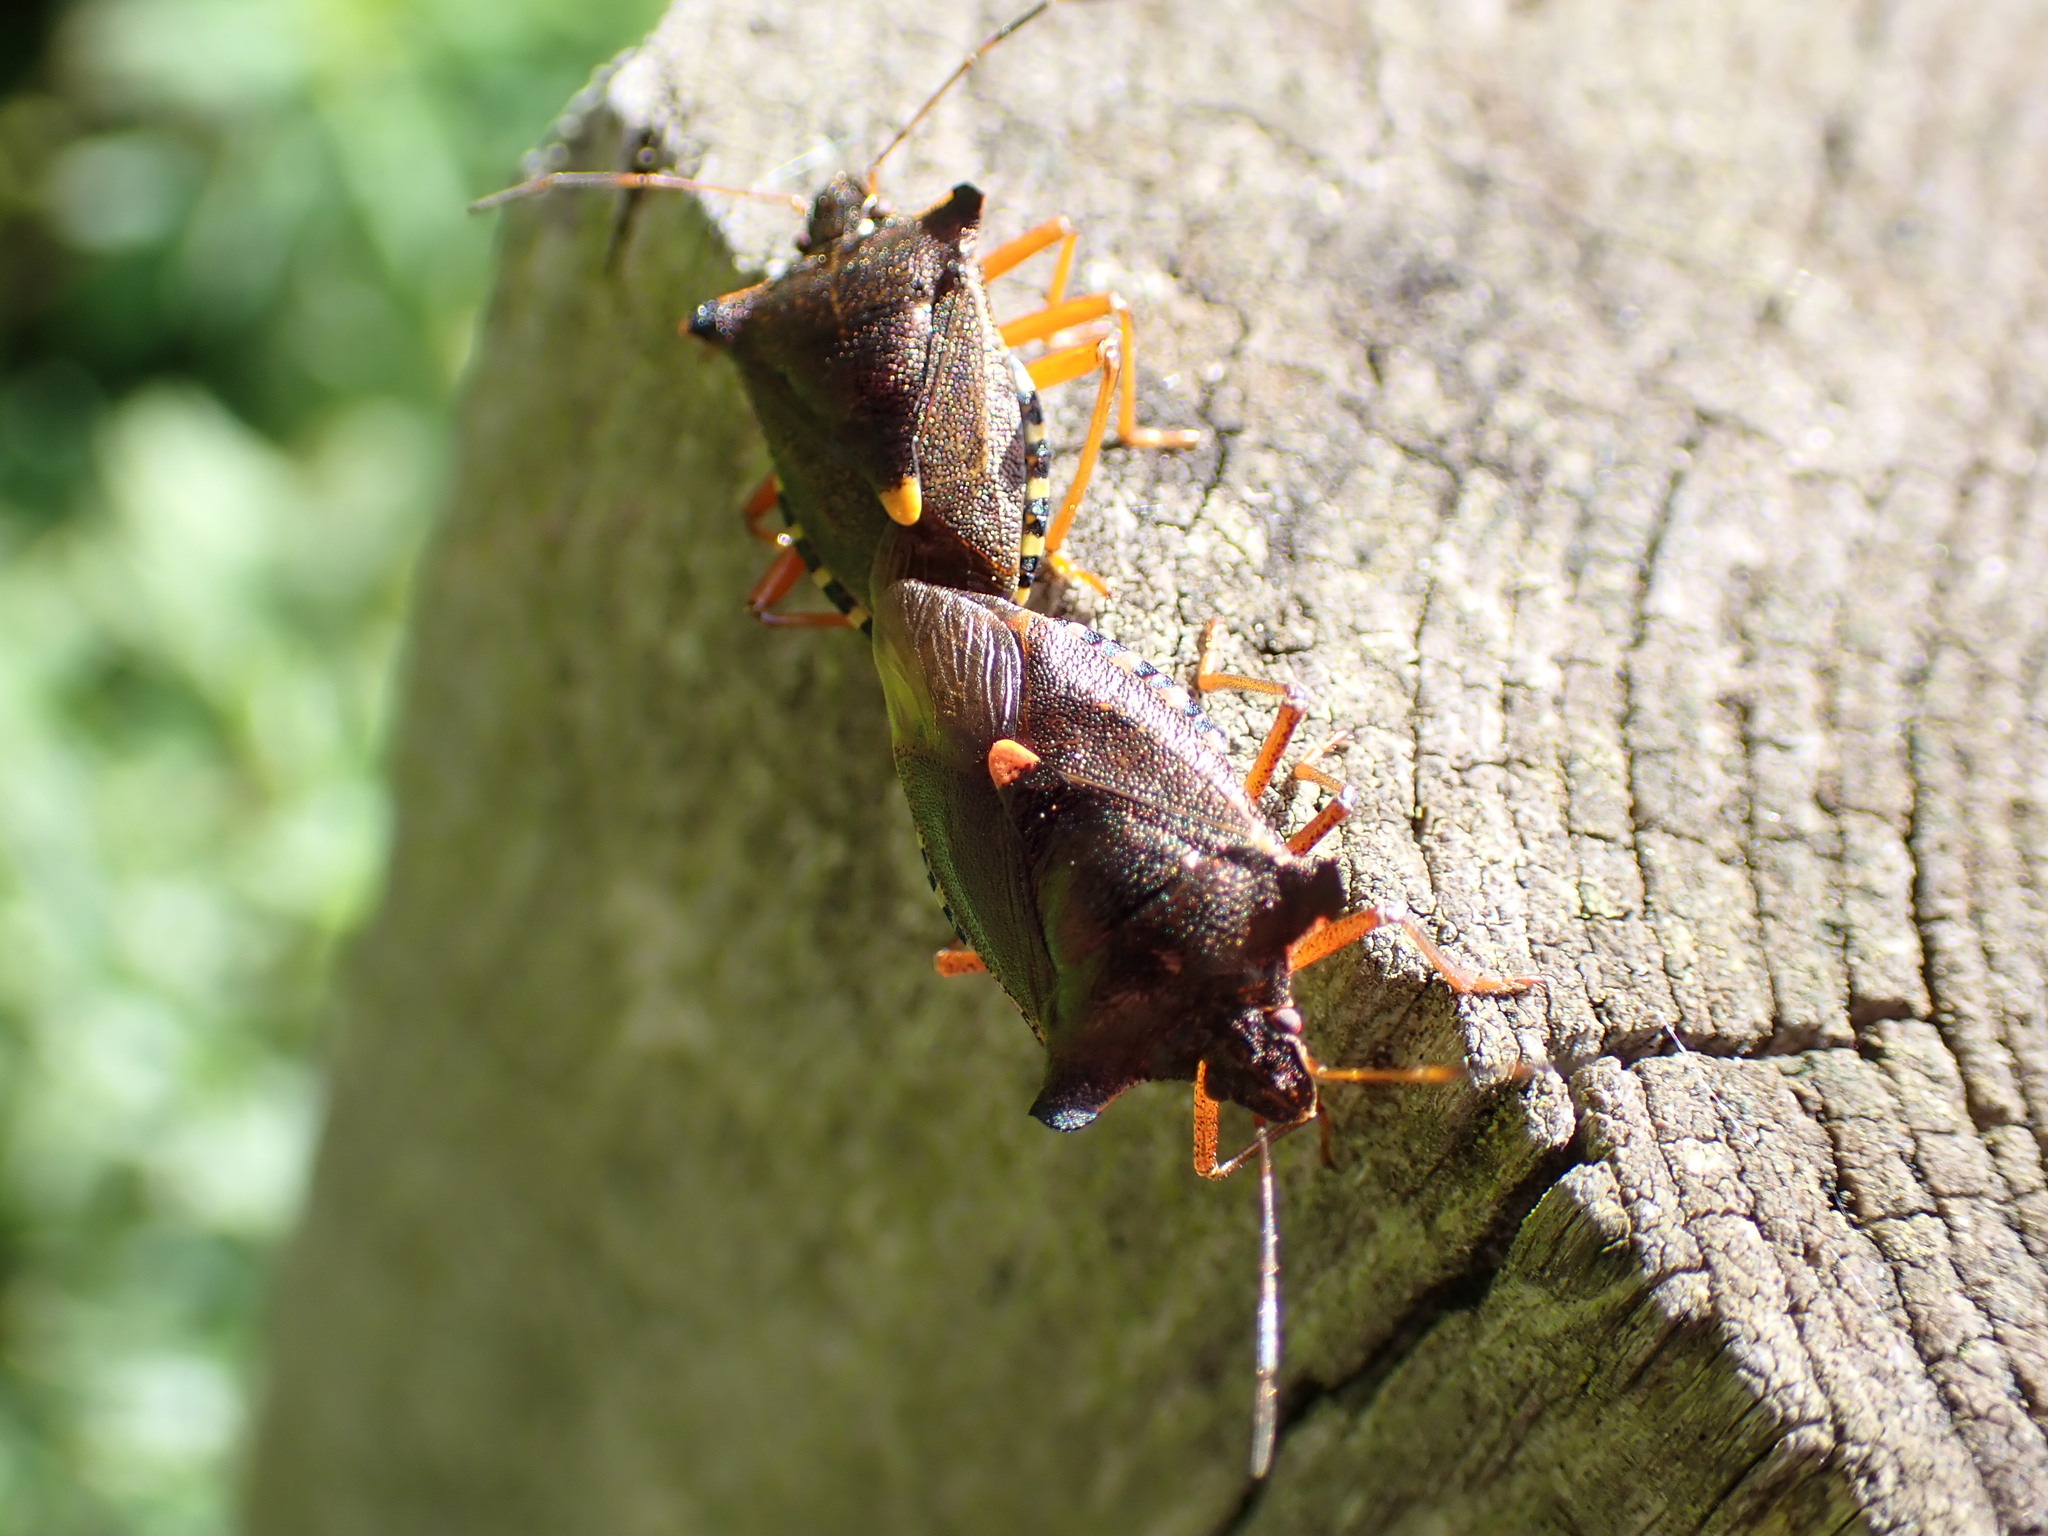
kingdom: Animalia
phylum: Arthropoda
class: Insecta
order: Hemiptera
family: Pentatomidae
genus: Pentatoma
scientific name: Pentatoma rufipes
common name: Forest bug
